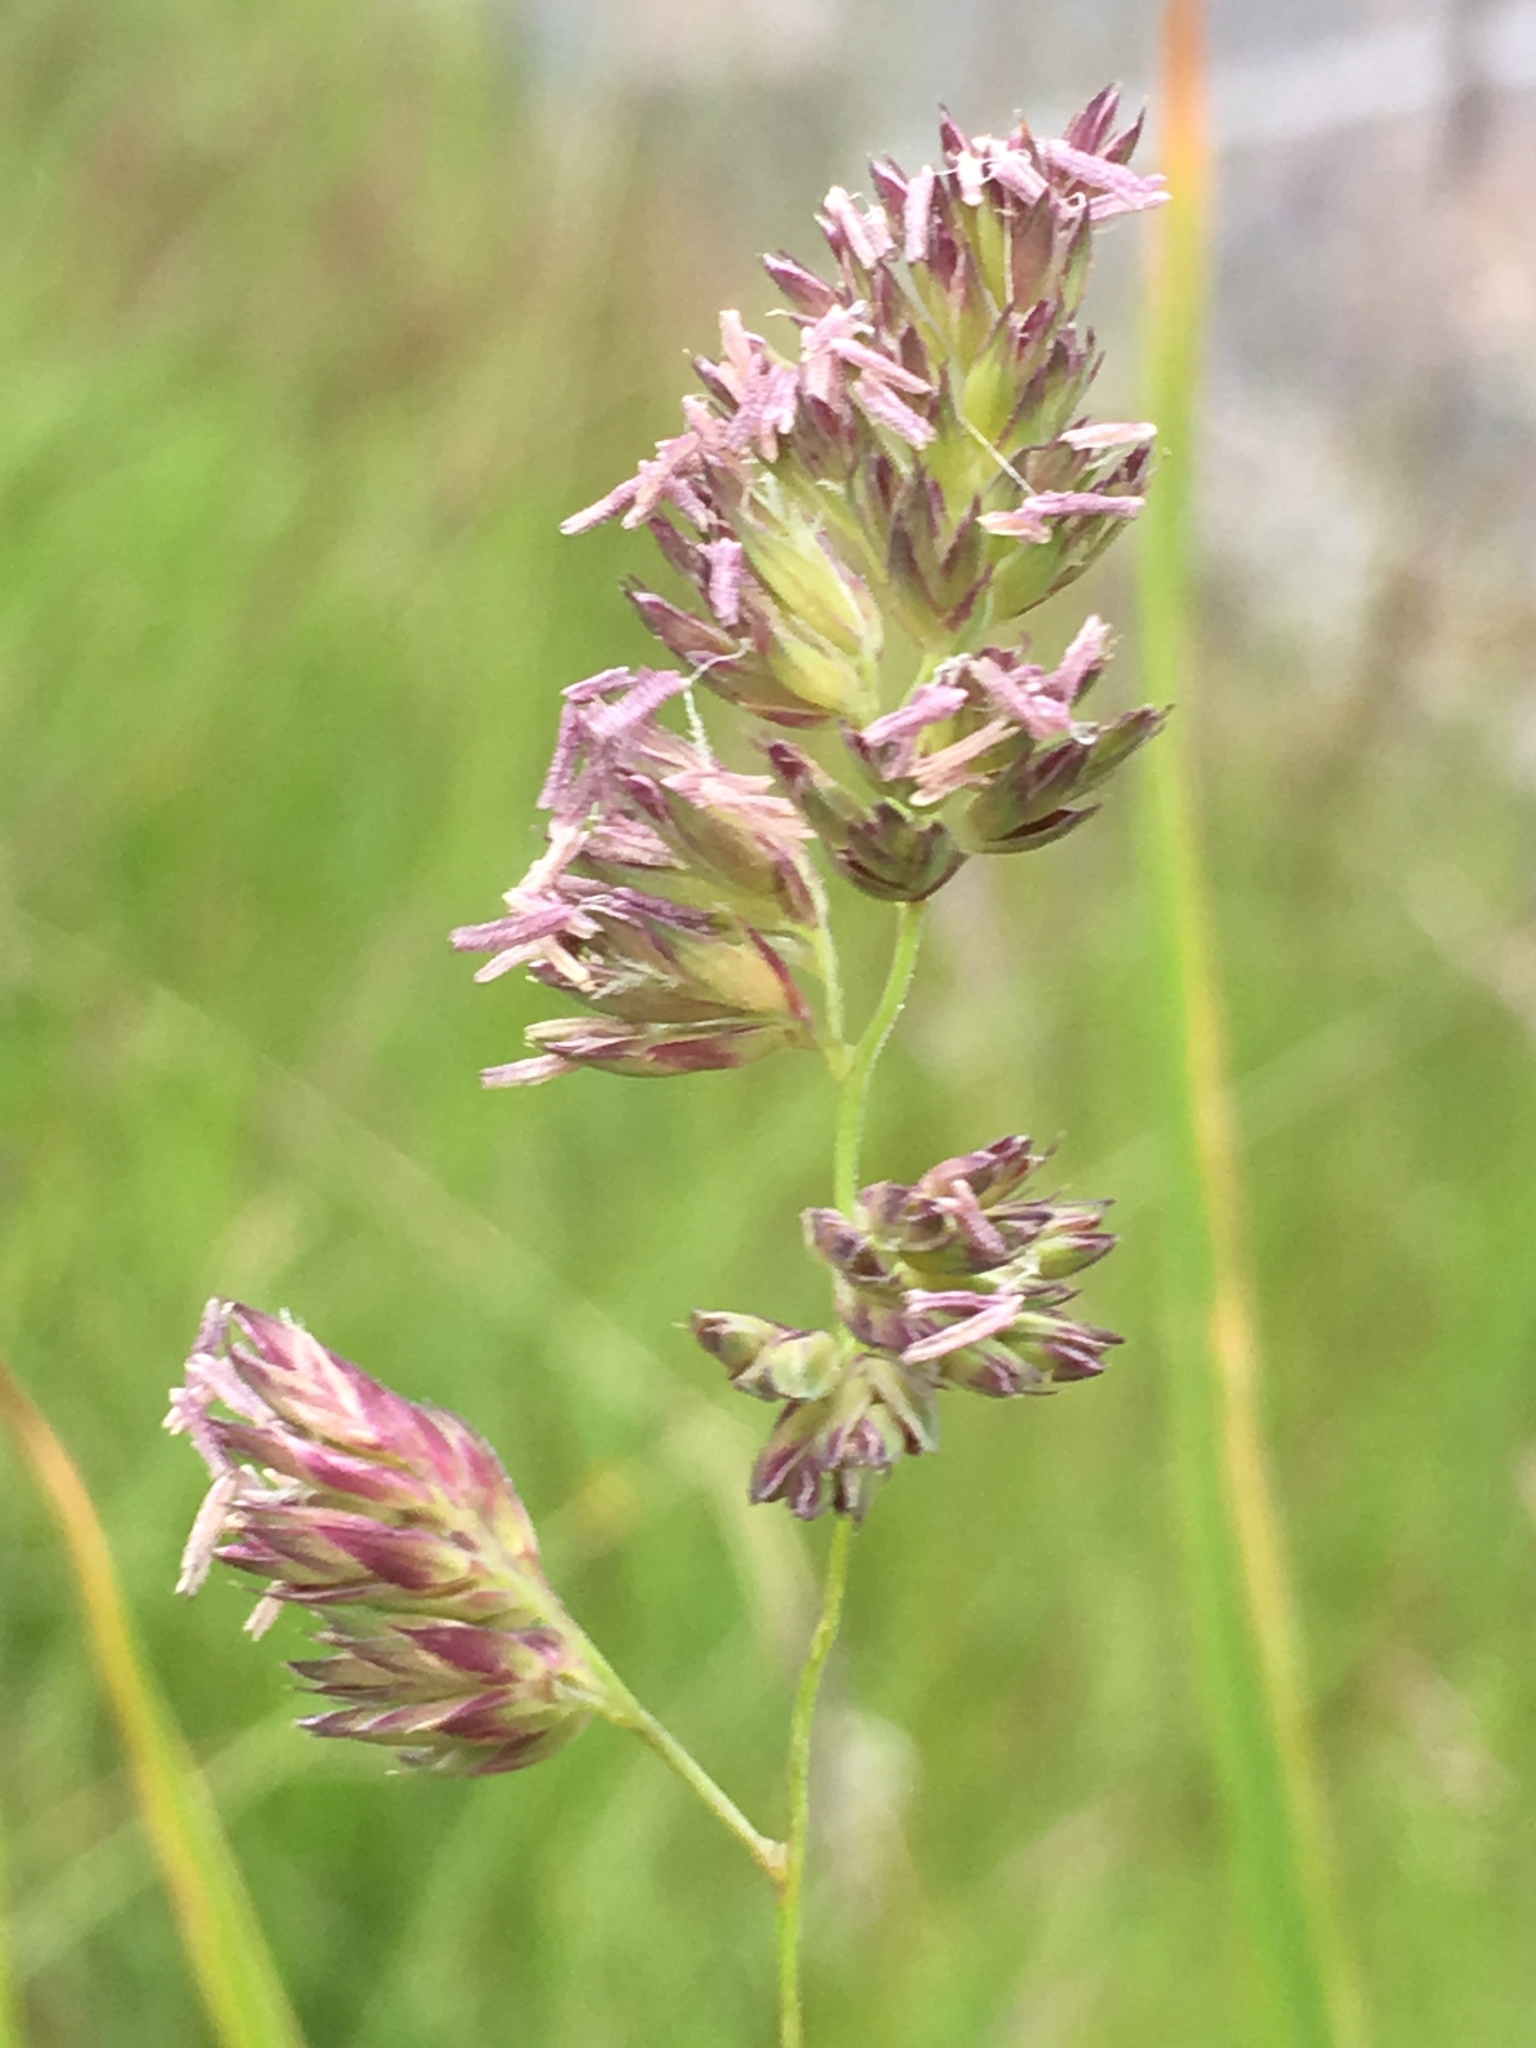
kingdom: Plantae
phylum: Tracheophyta
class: Liliopsida
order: Poales
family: Poaceae
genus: Dactylis
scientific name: Dactylis glomerata
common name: Orchardgrass
